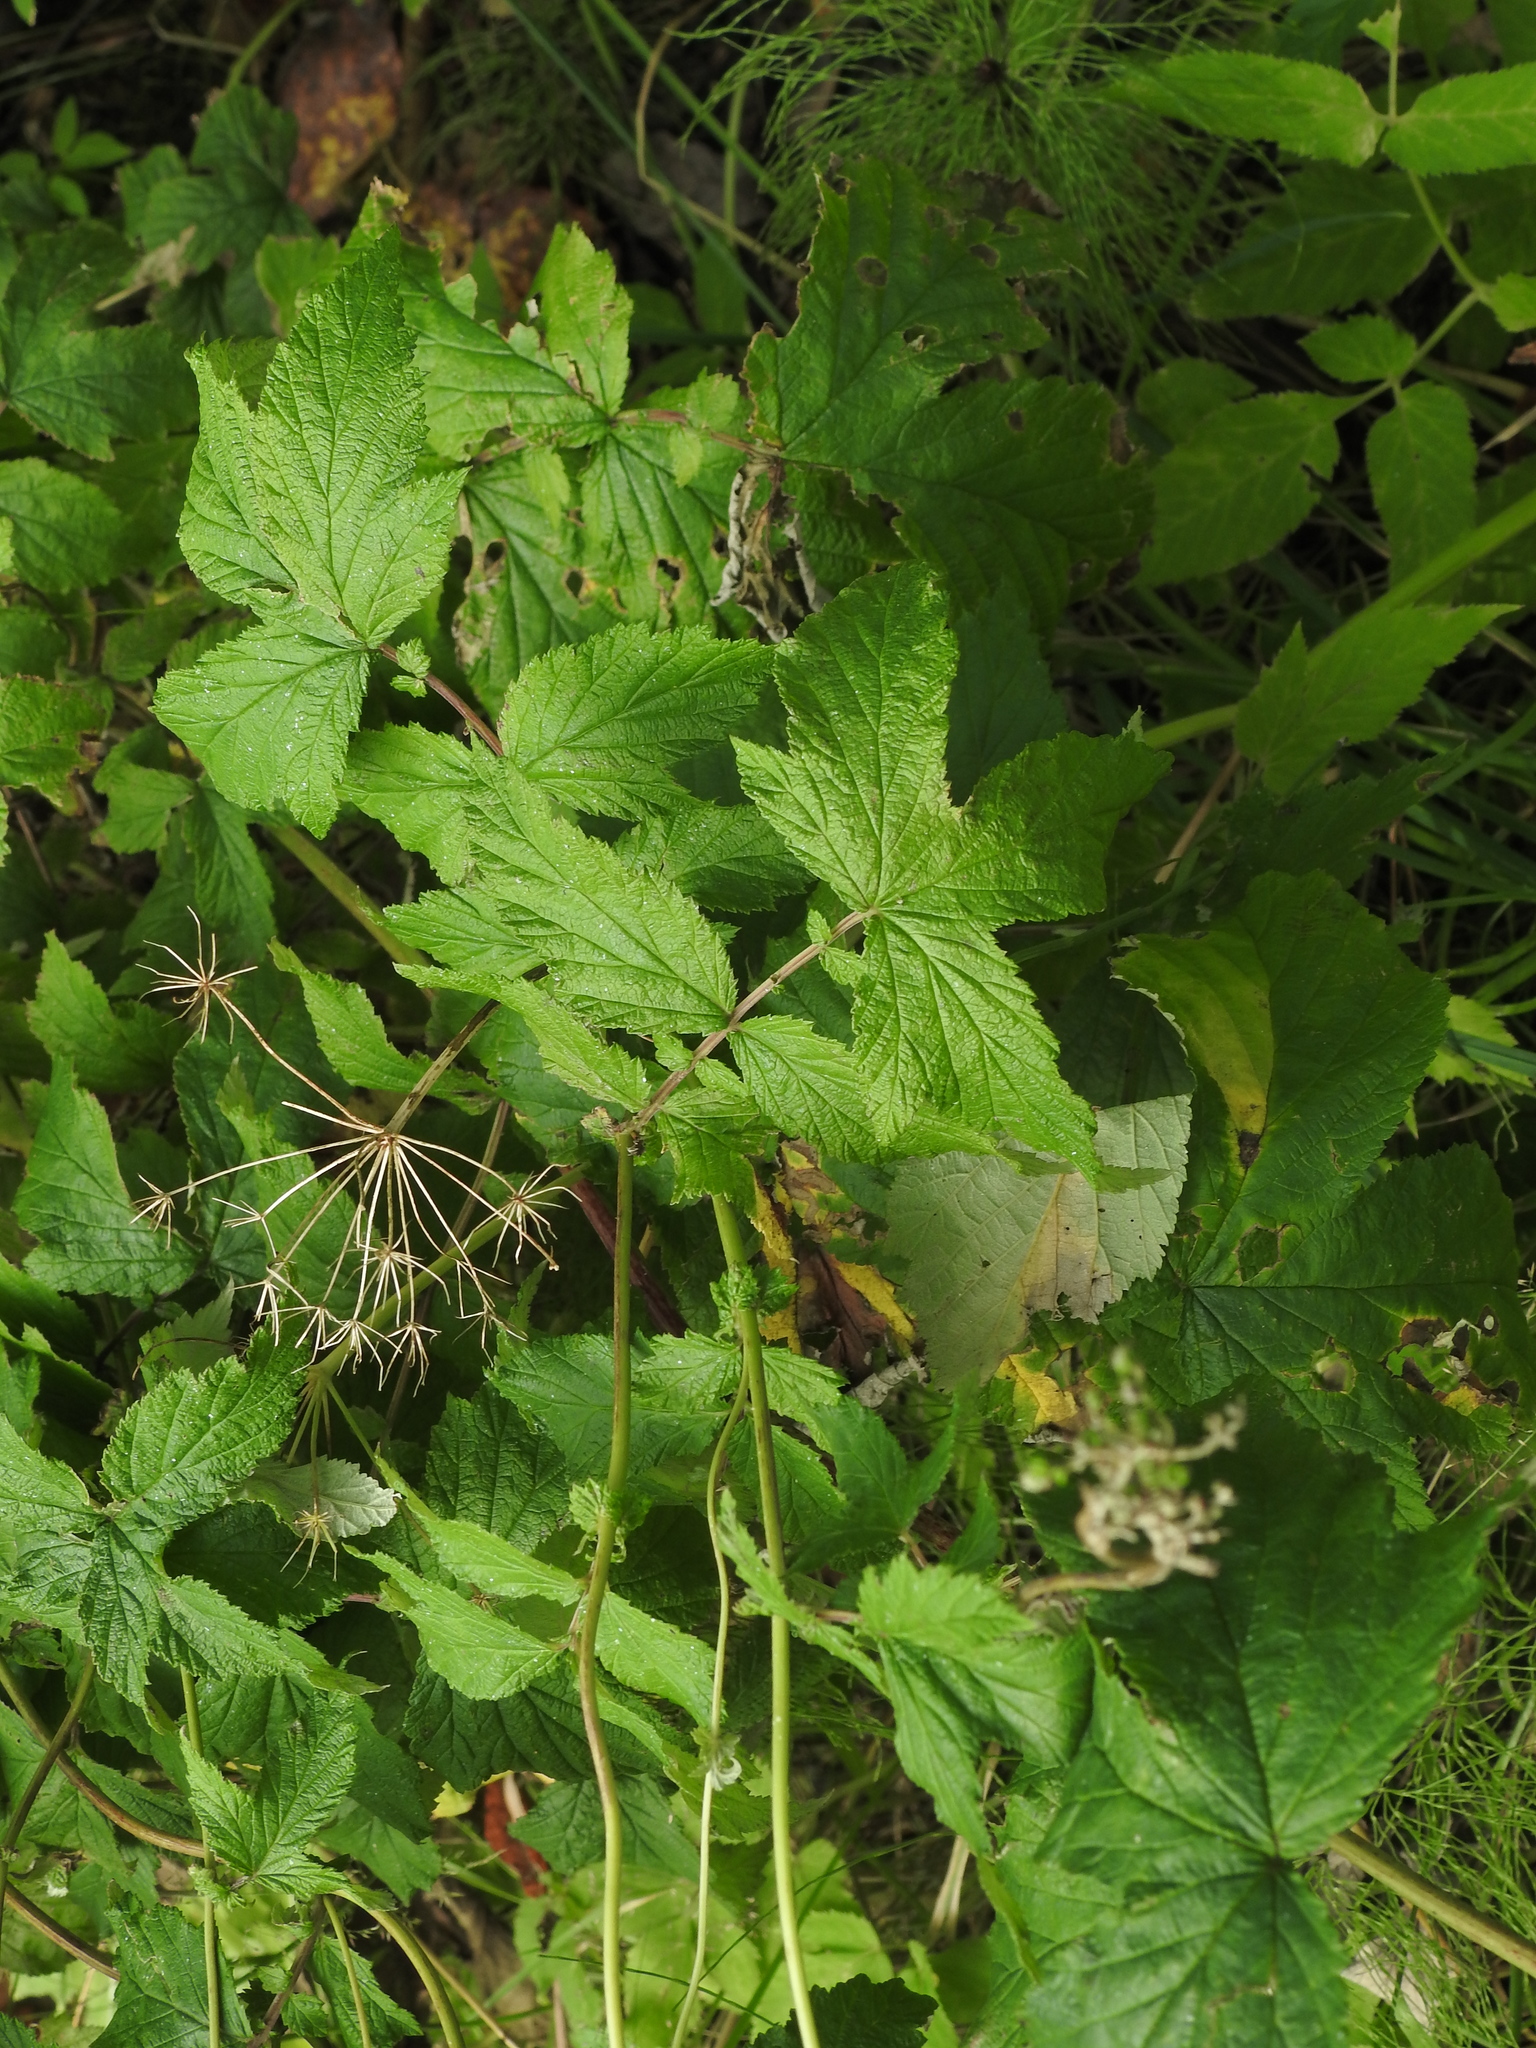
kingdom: Plantae
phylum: Tracheophyta
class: Magnoliopsida
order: Rosales
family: Rosaceae
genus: Filipendula
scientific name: Filipendula ulmaria
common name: Meadowsweet
